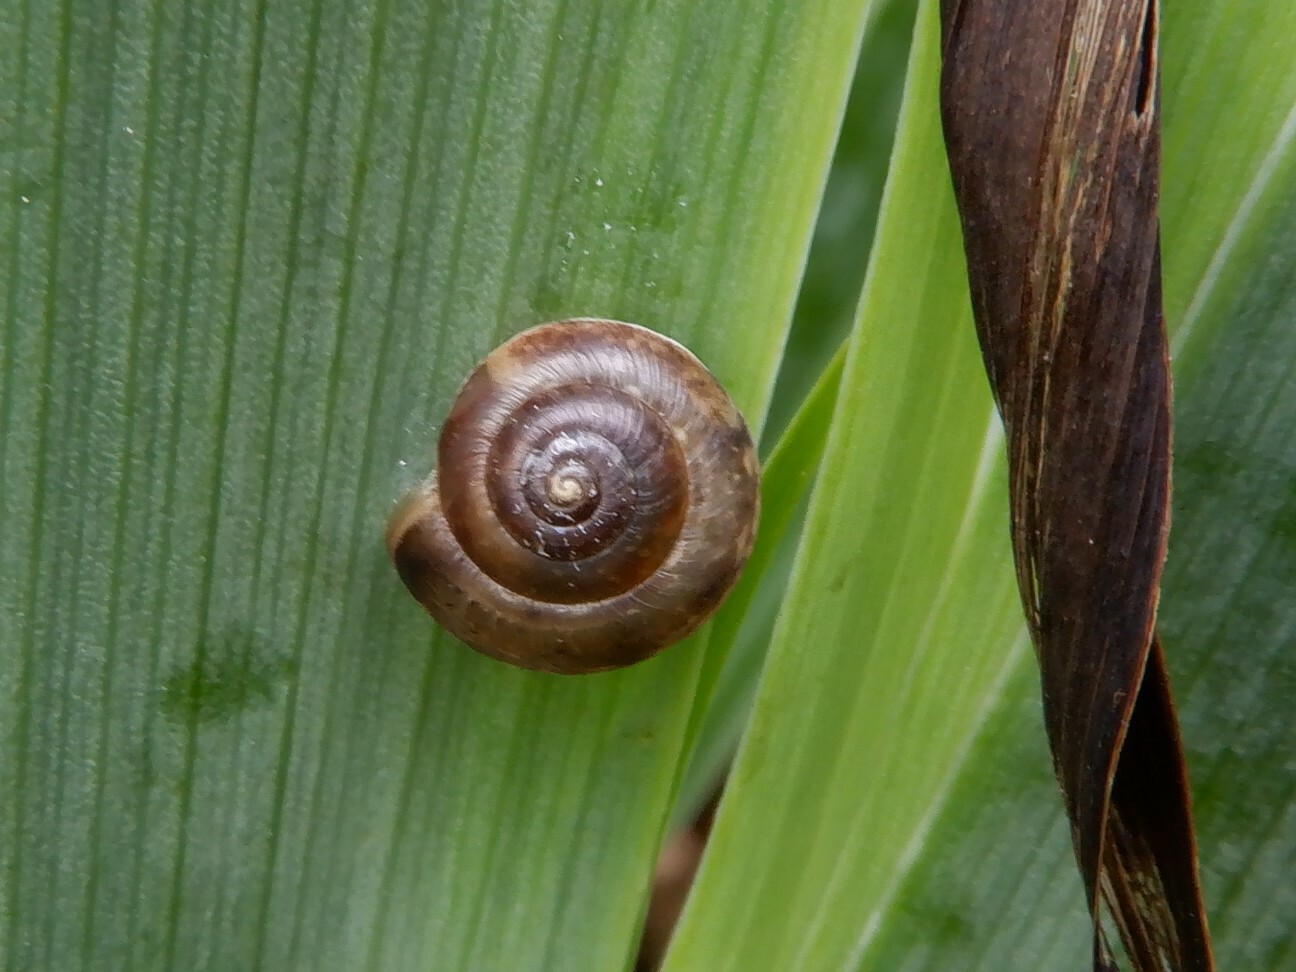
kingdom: Animalia
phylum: Mollusca
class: Gastropoda
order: Stylommatophora
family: Hygromiidae
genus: Hygromia
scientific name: Hygromia cinctella
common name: Girdled snail
